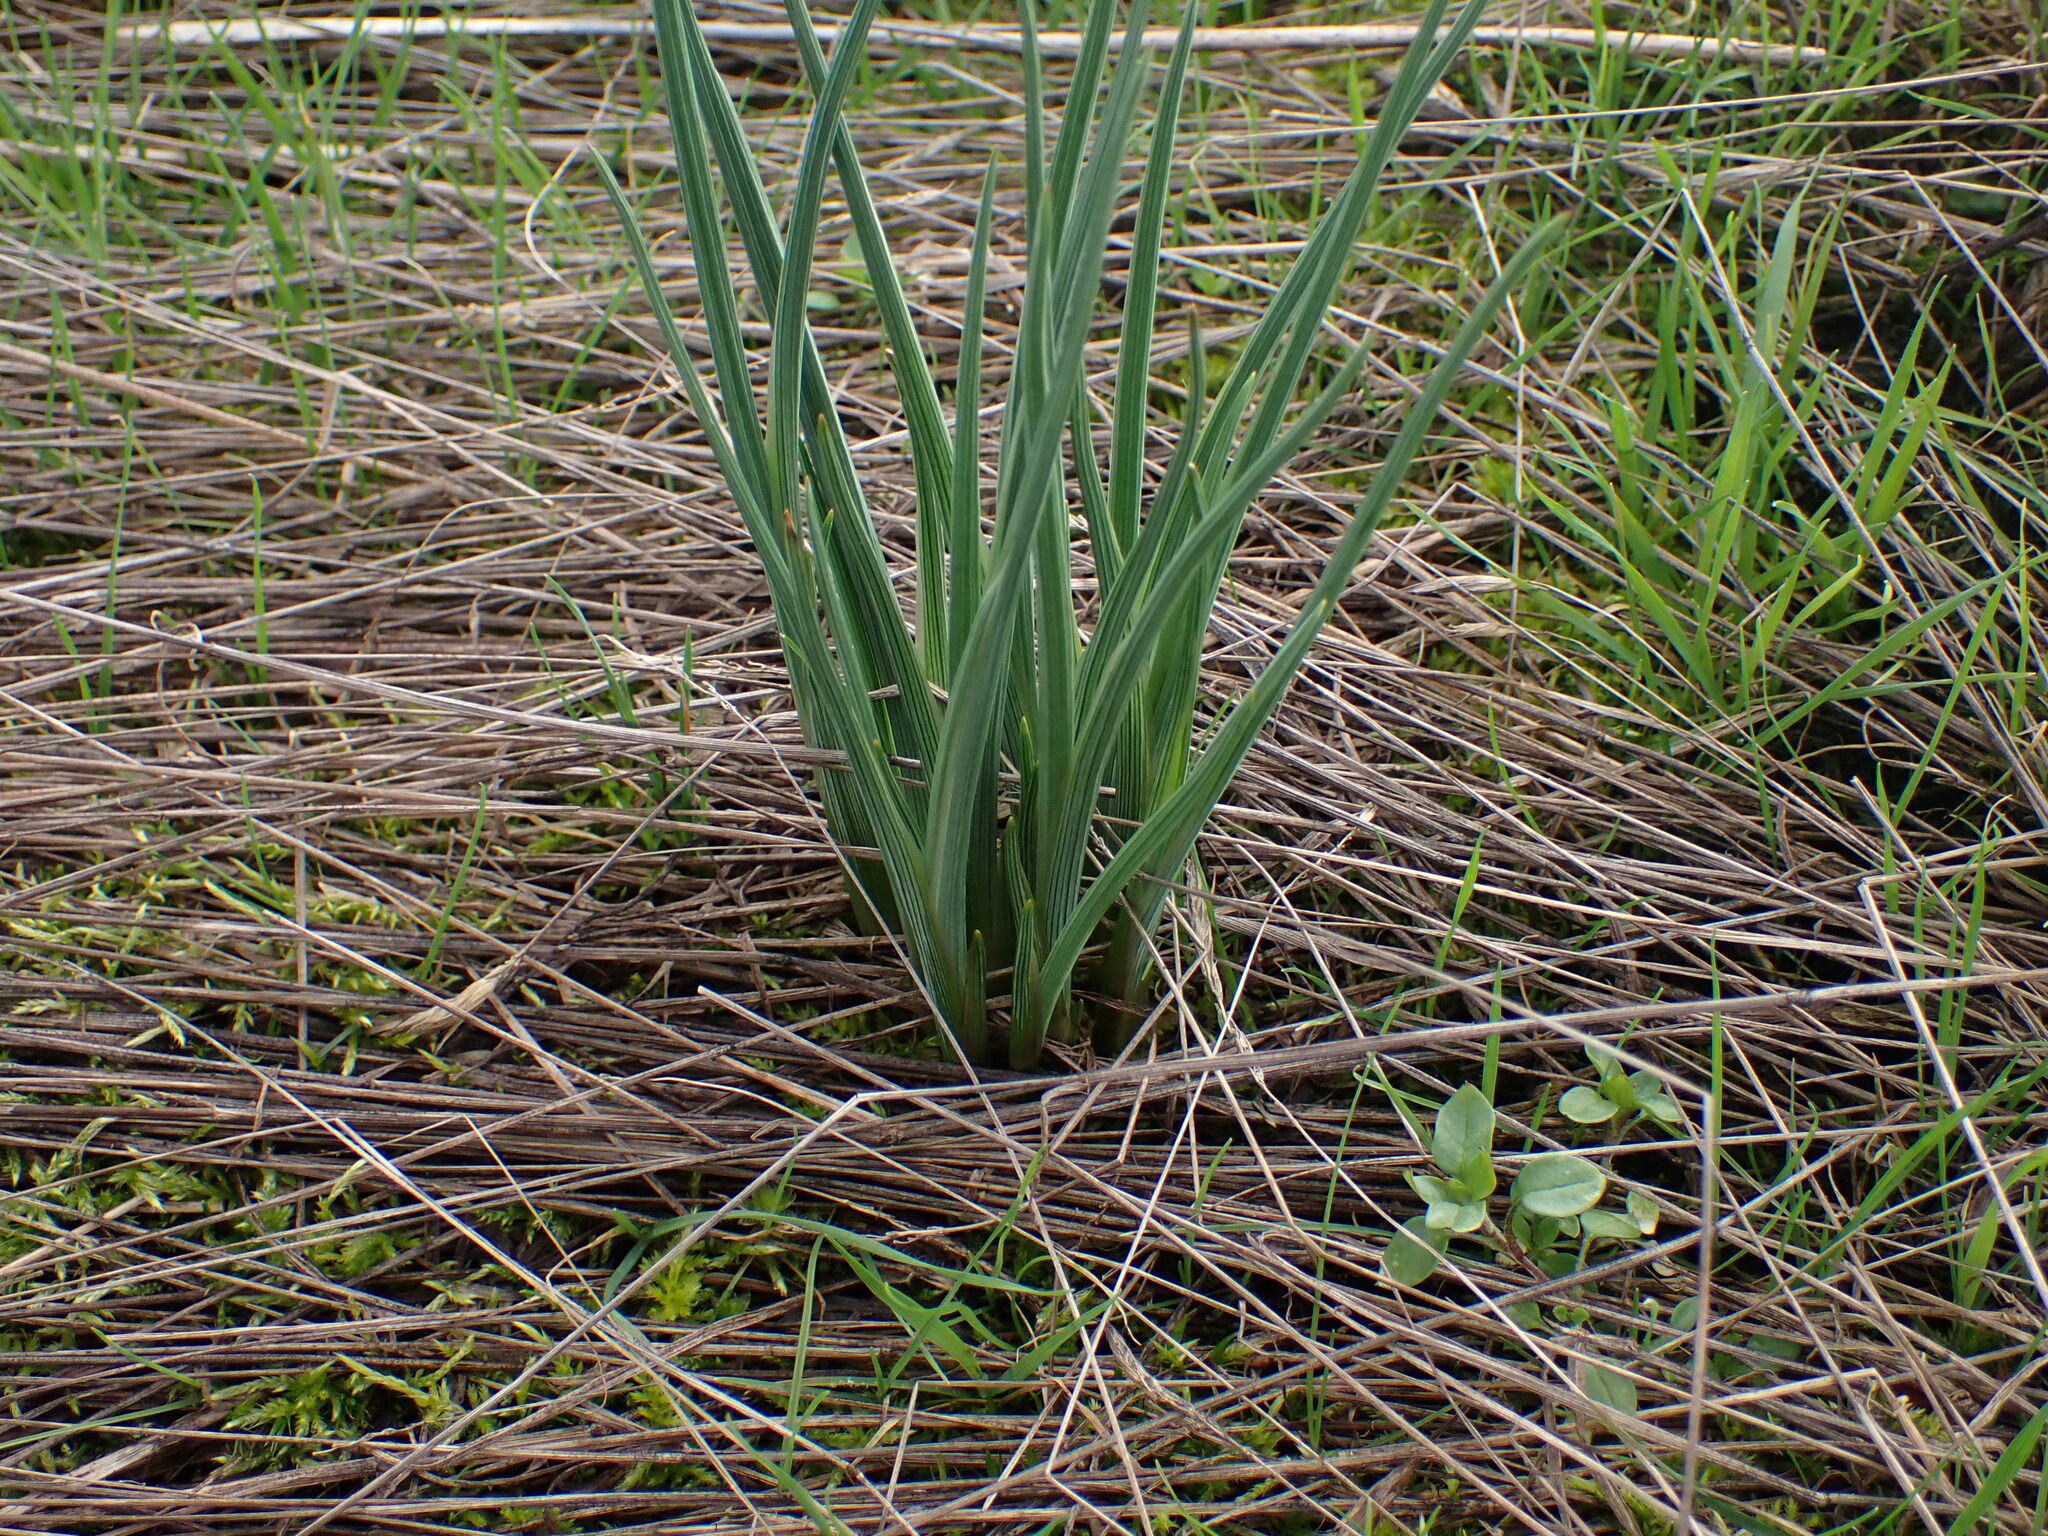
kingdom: Plantae
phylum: Tracheophyta
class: Liliopsida
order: Asparagales
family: Iridaceae
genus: Olsynium
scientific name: Olsynium douglasii
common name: Douglas' grasswidow
